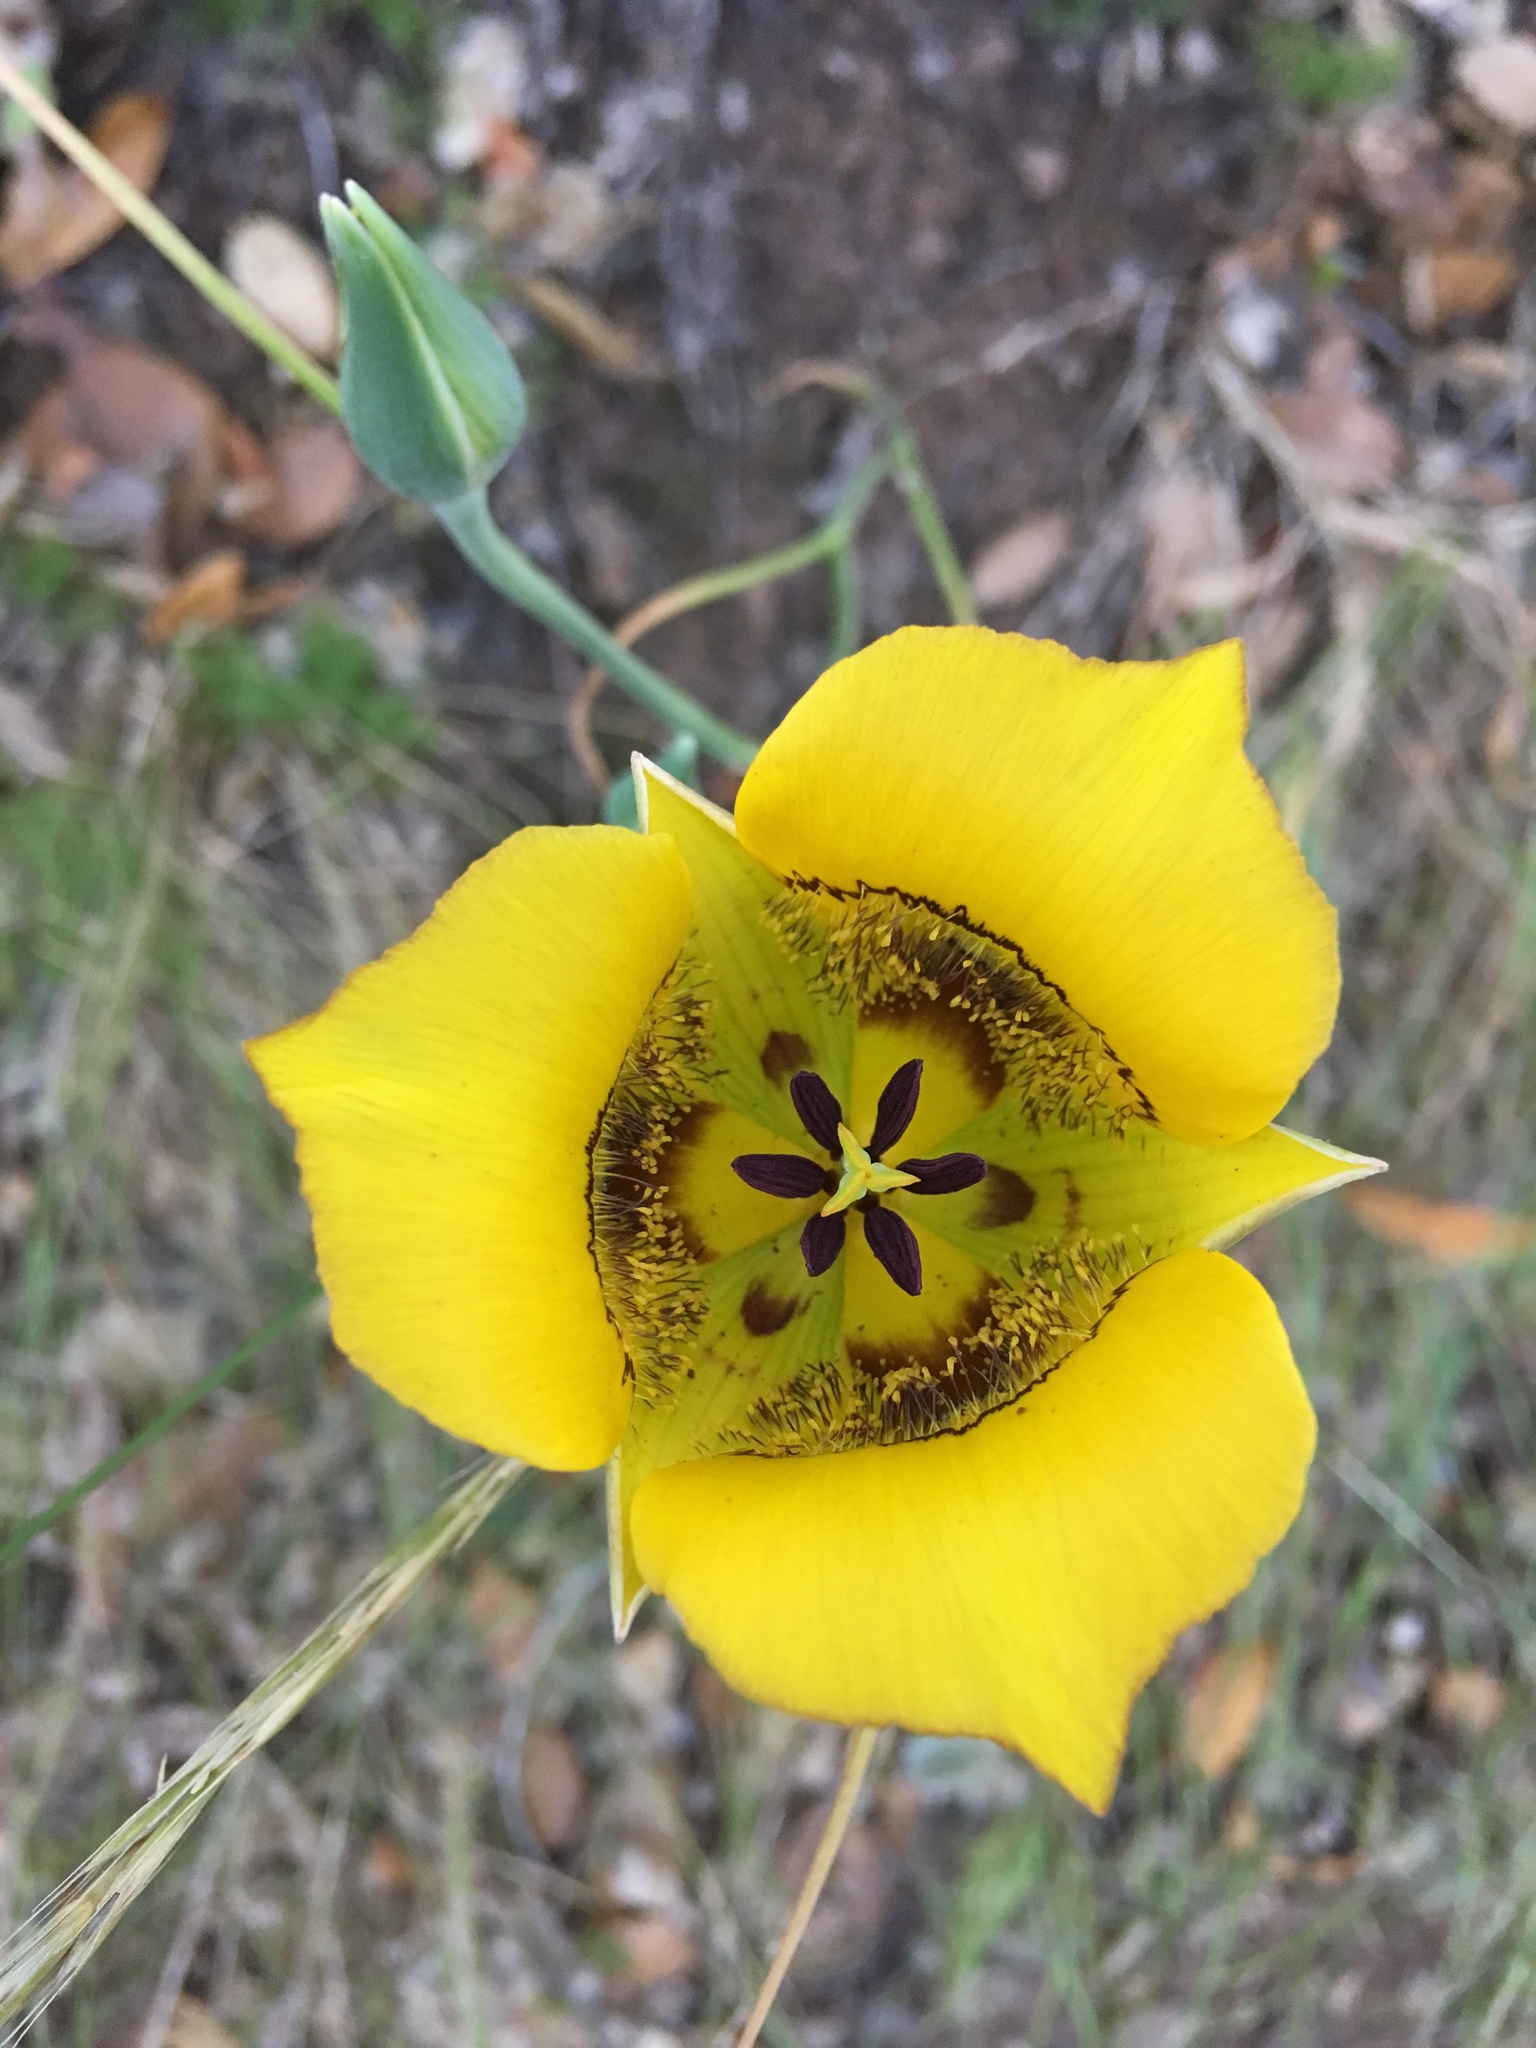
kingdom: Plantae
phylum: Tracheophyta
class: Liliopsida
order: Liliales
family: Liliaceae
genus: Calochortus
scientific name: Calochortus clavatus
